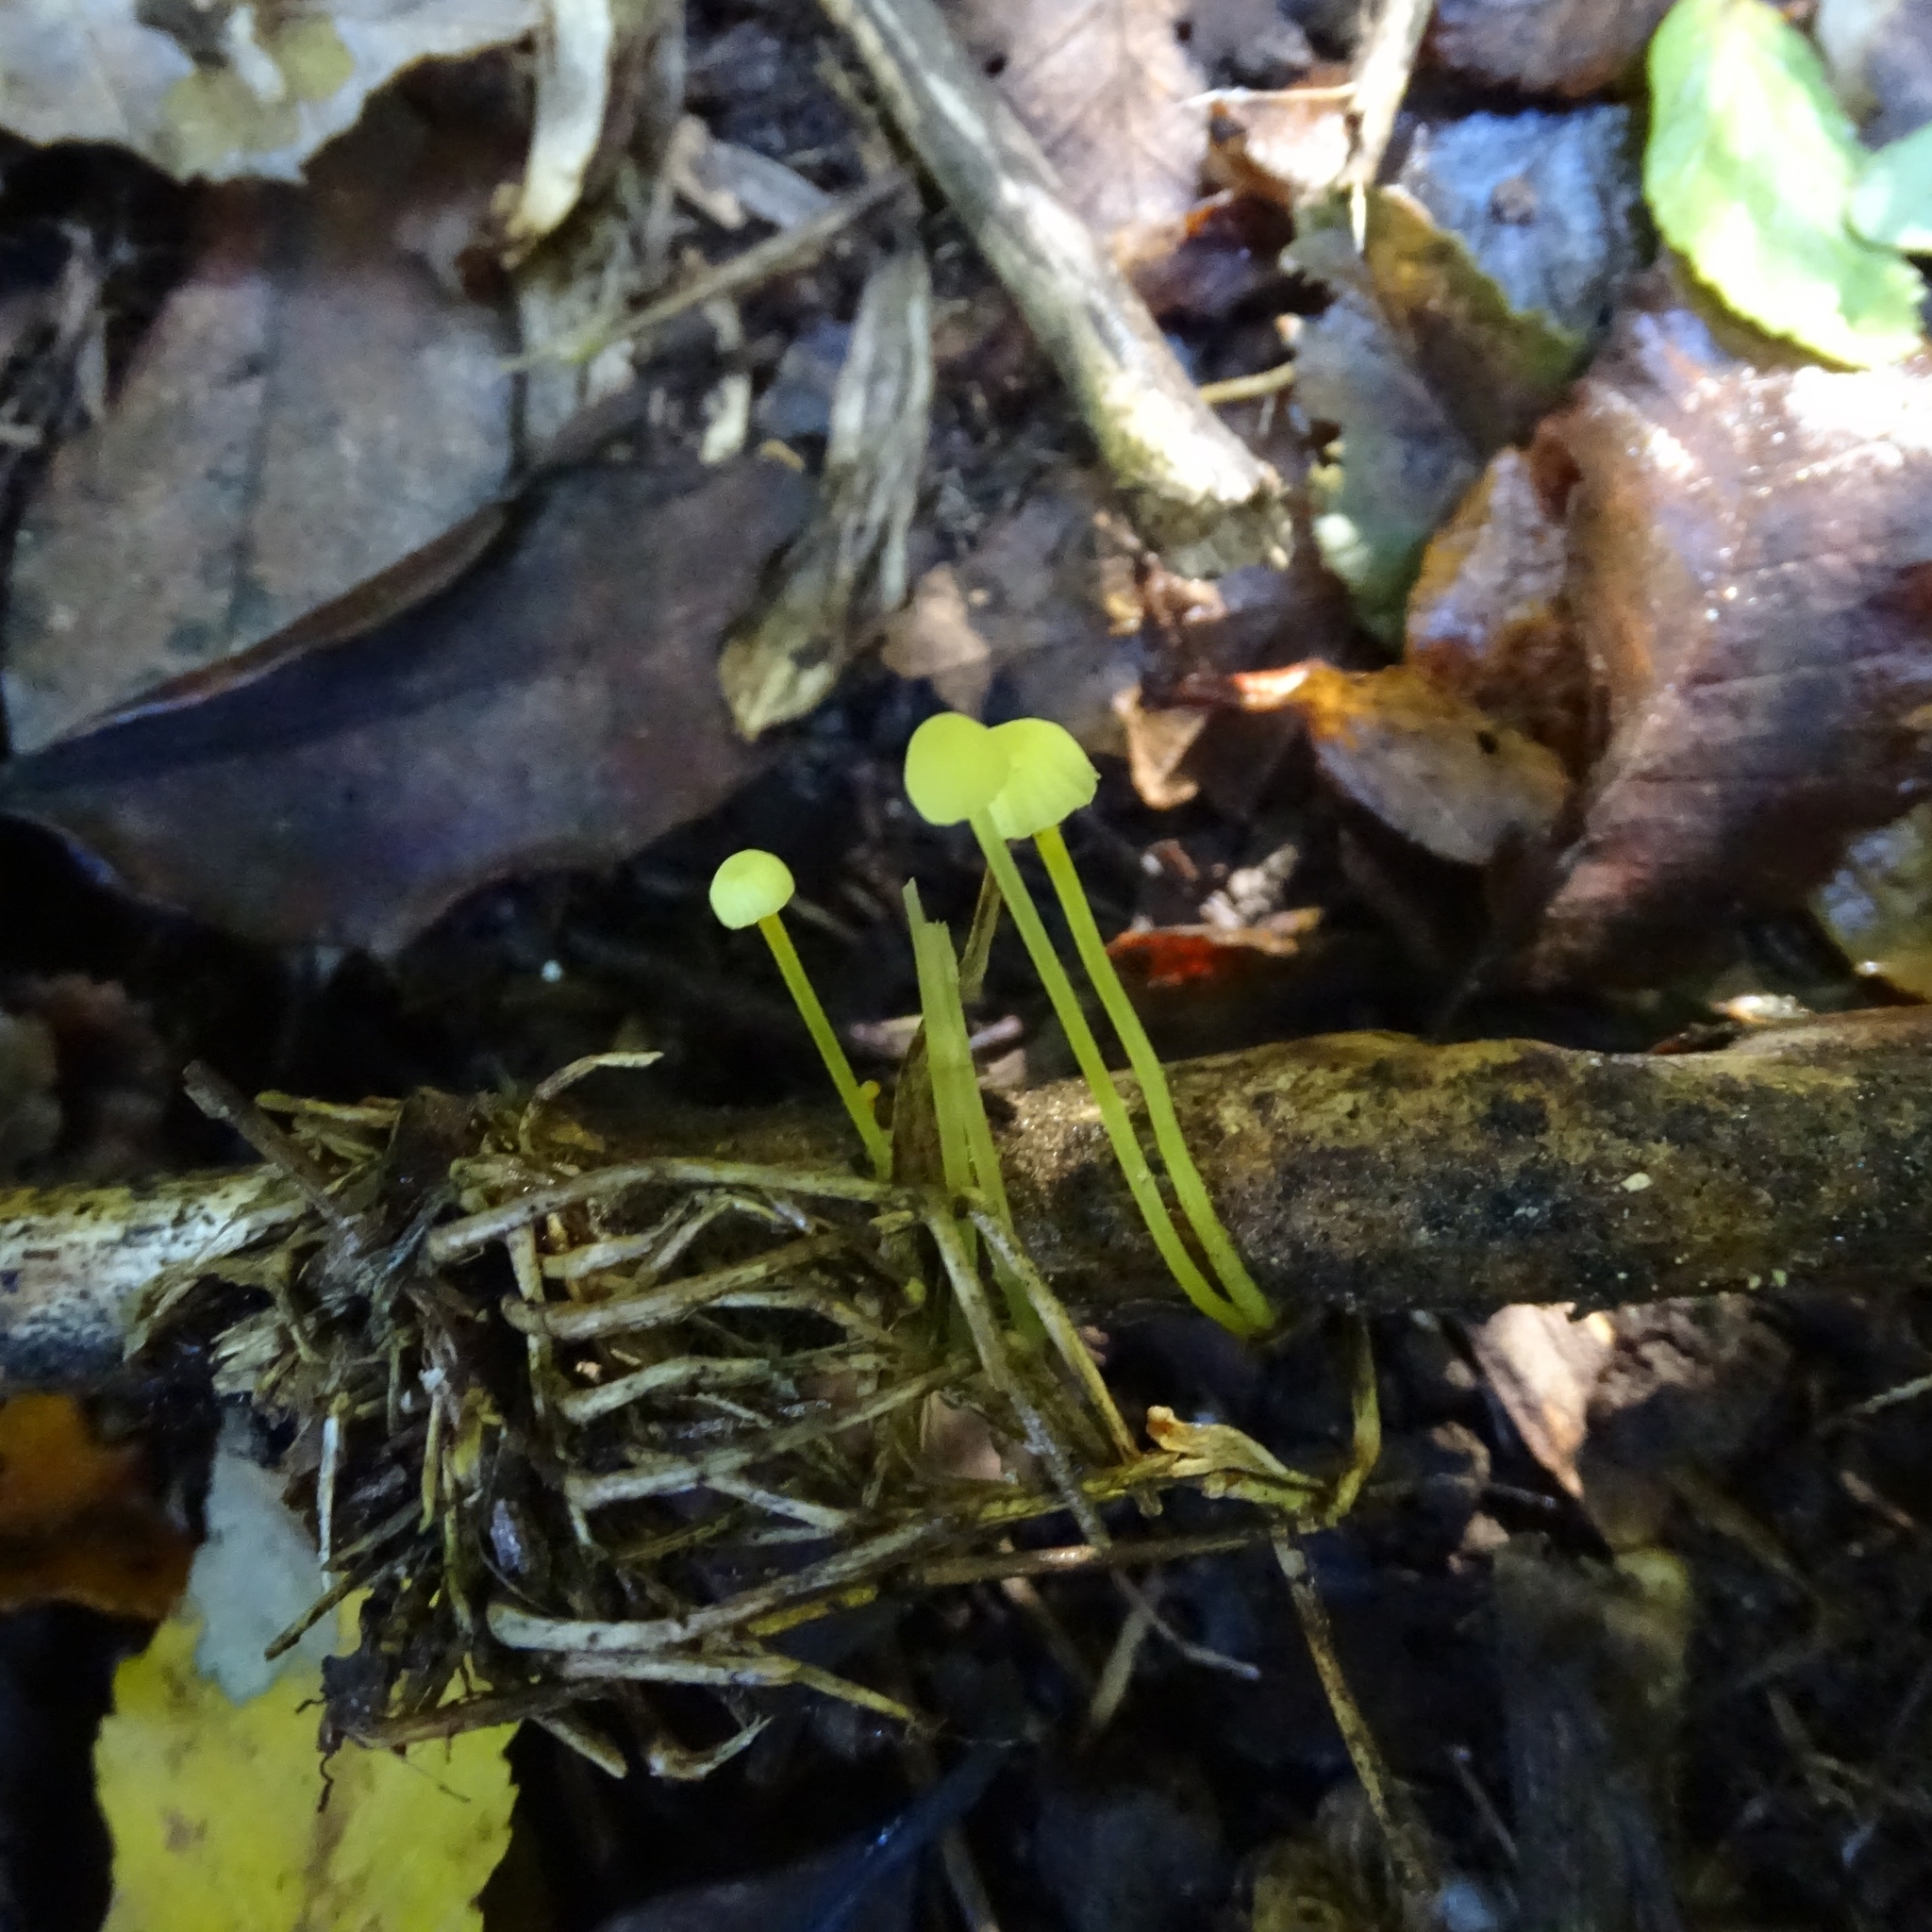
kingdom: Fungi
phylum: Basidiomycota
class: Agaricomycetes
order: Agaricales
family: Mycenaceae
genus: Mycena
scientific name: Mycena chusqueophila
